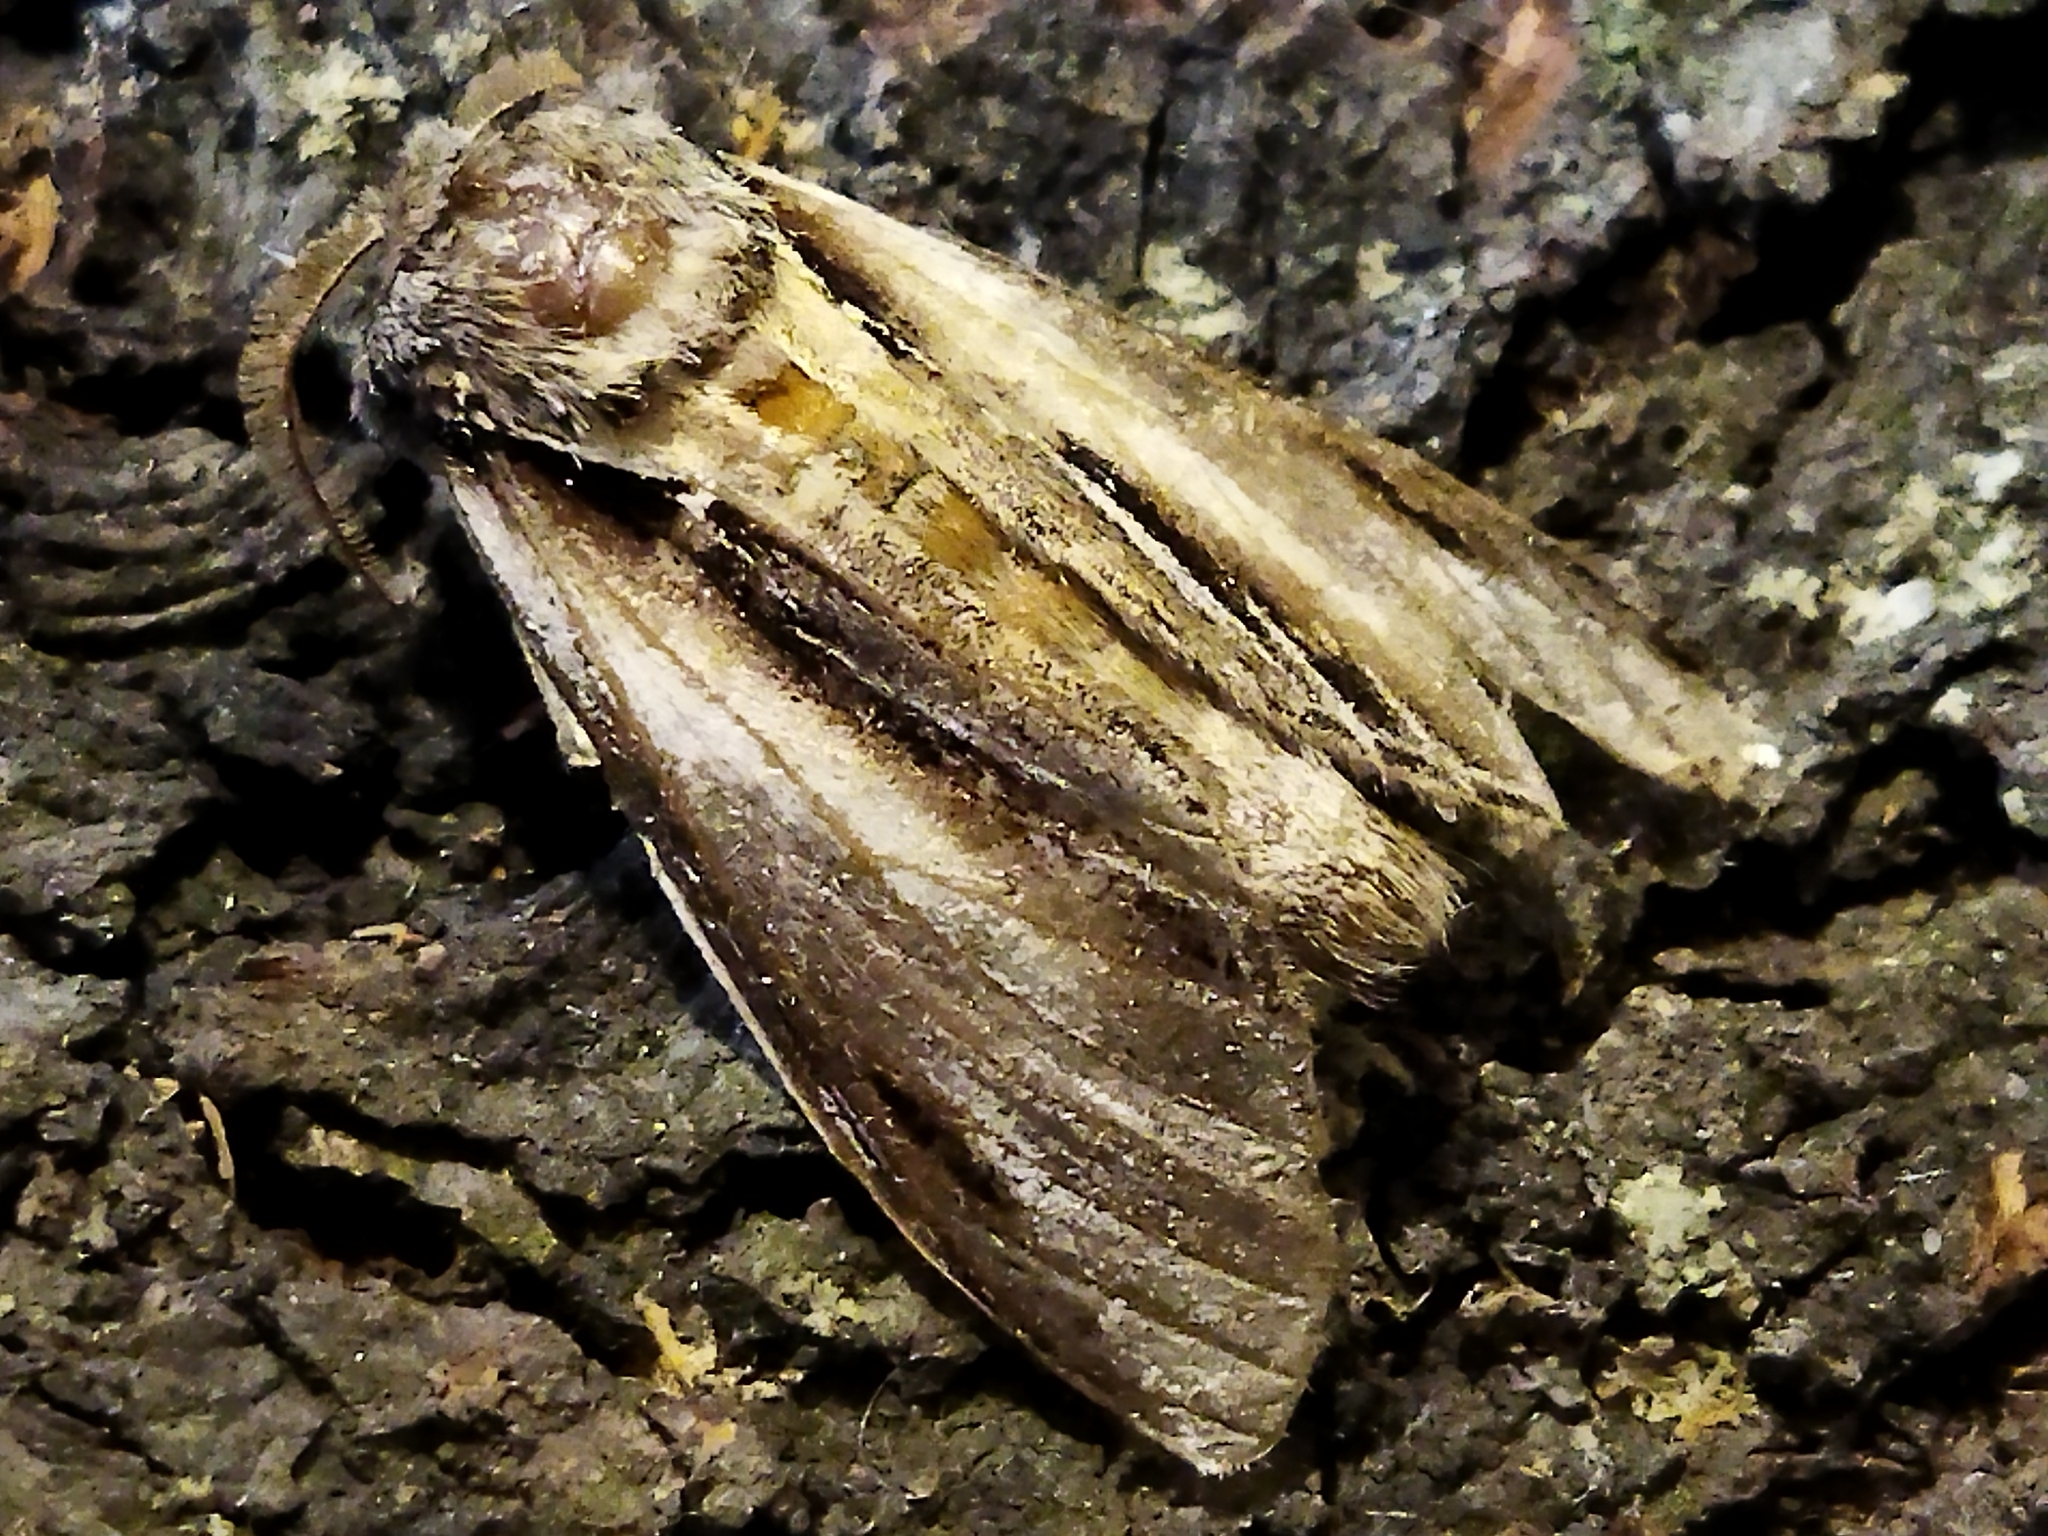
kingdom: Animalia
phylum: Arthropoda
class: Insecta
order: Lepidoptera
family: Notodontidae
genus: Pheosia
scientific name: Pheosia tremula
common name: Swallow prominent
